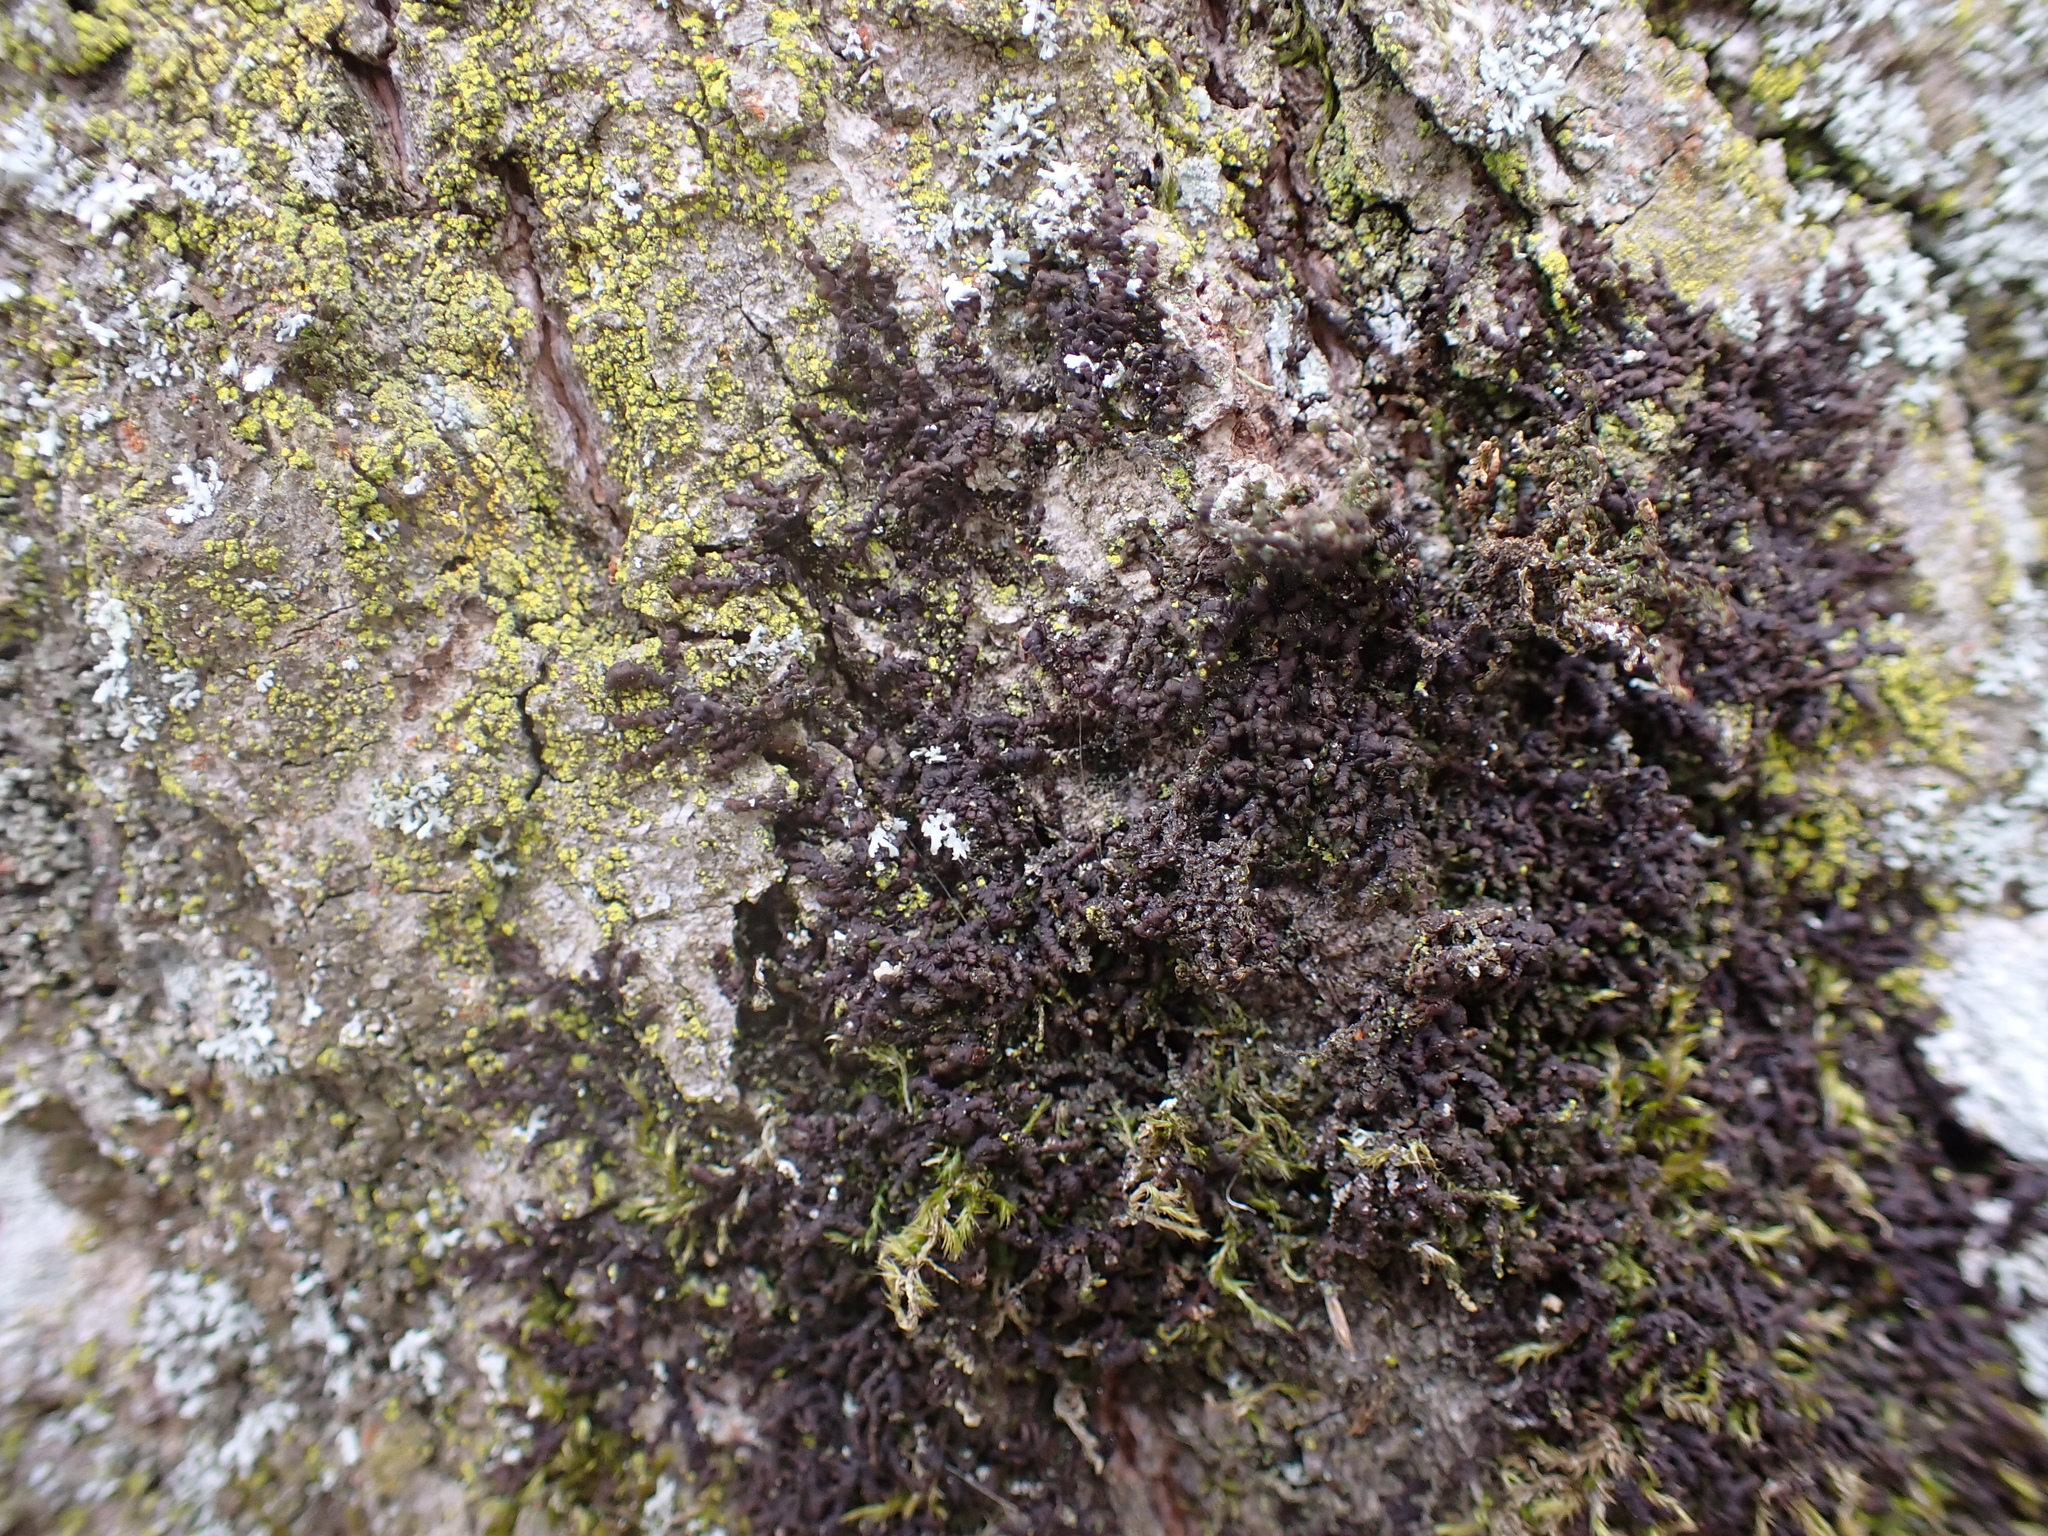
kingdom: Plantae
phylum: Marchantiophyta
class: Jungermanniopsida
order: Porellales
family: Frullaniaceae
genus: Frullania
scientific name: Frullania dilatata
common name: Dilated scalewort
